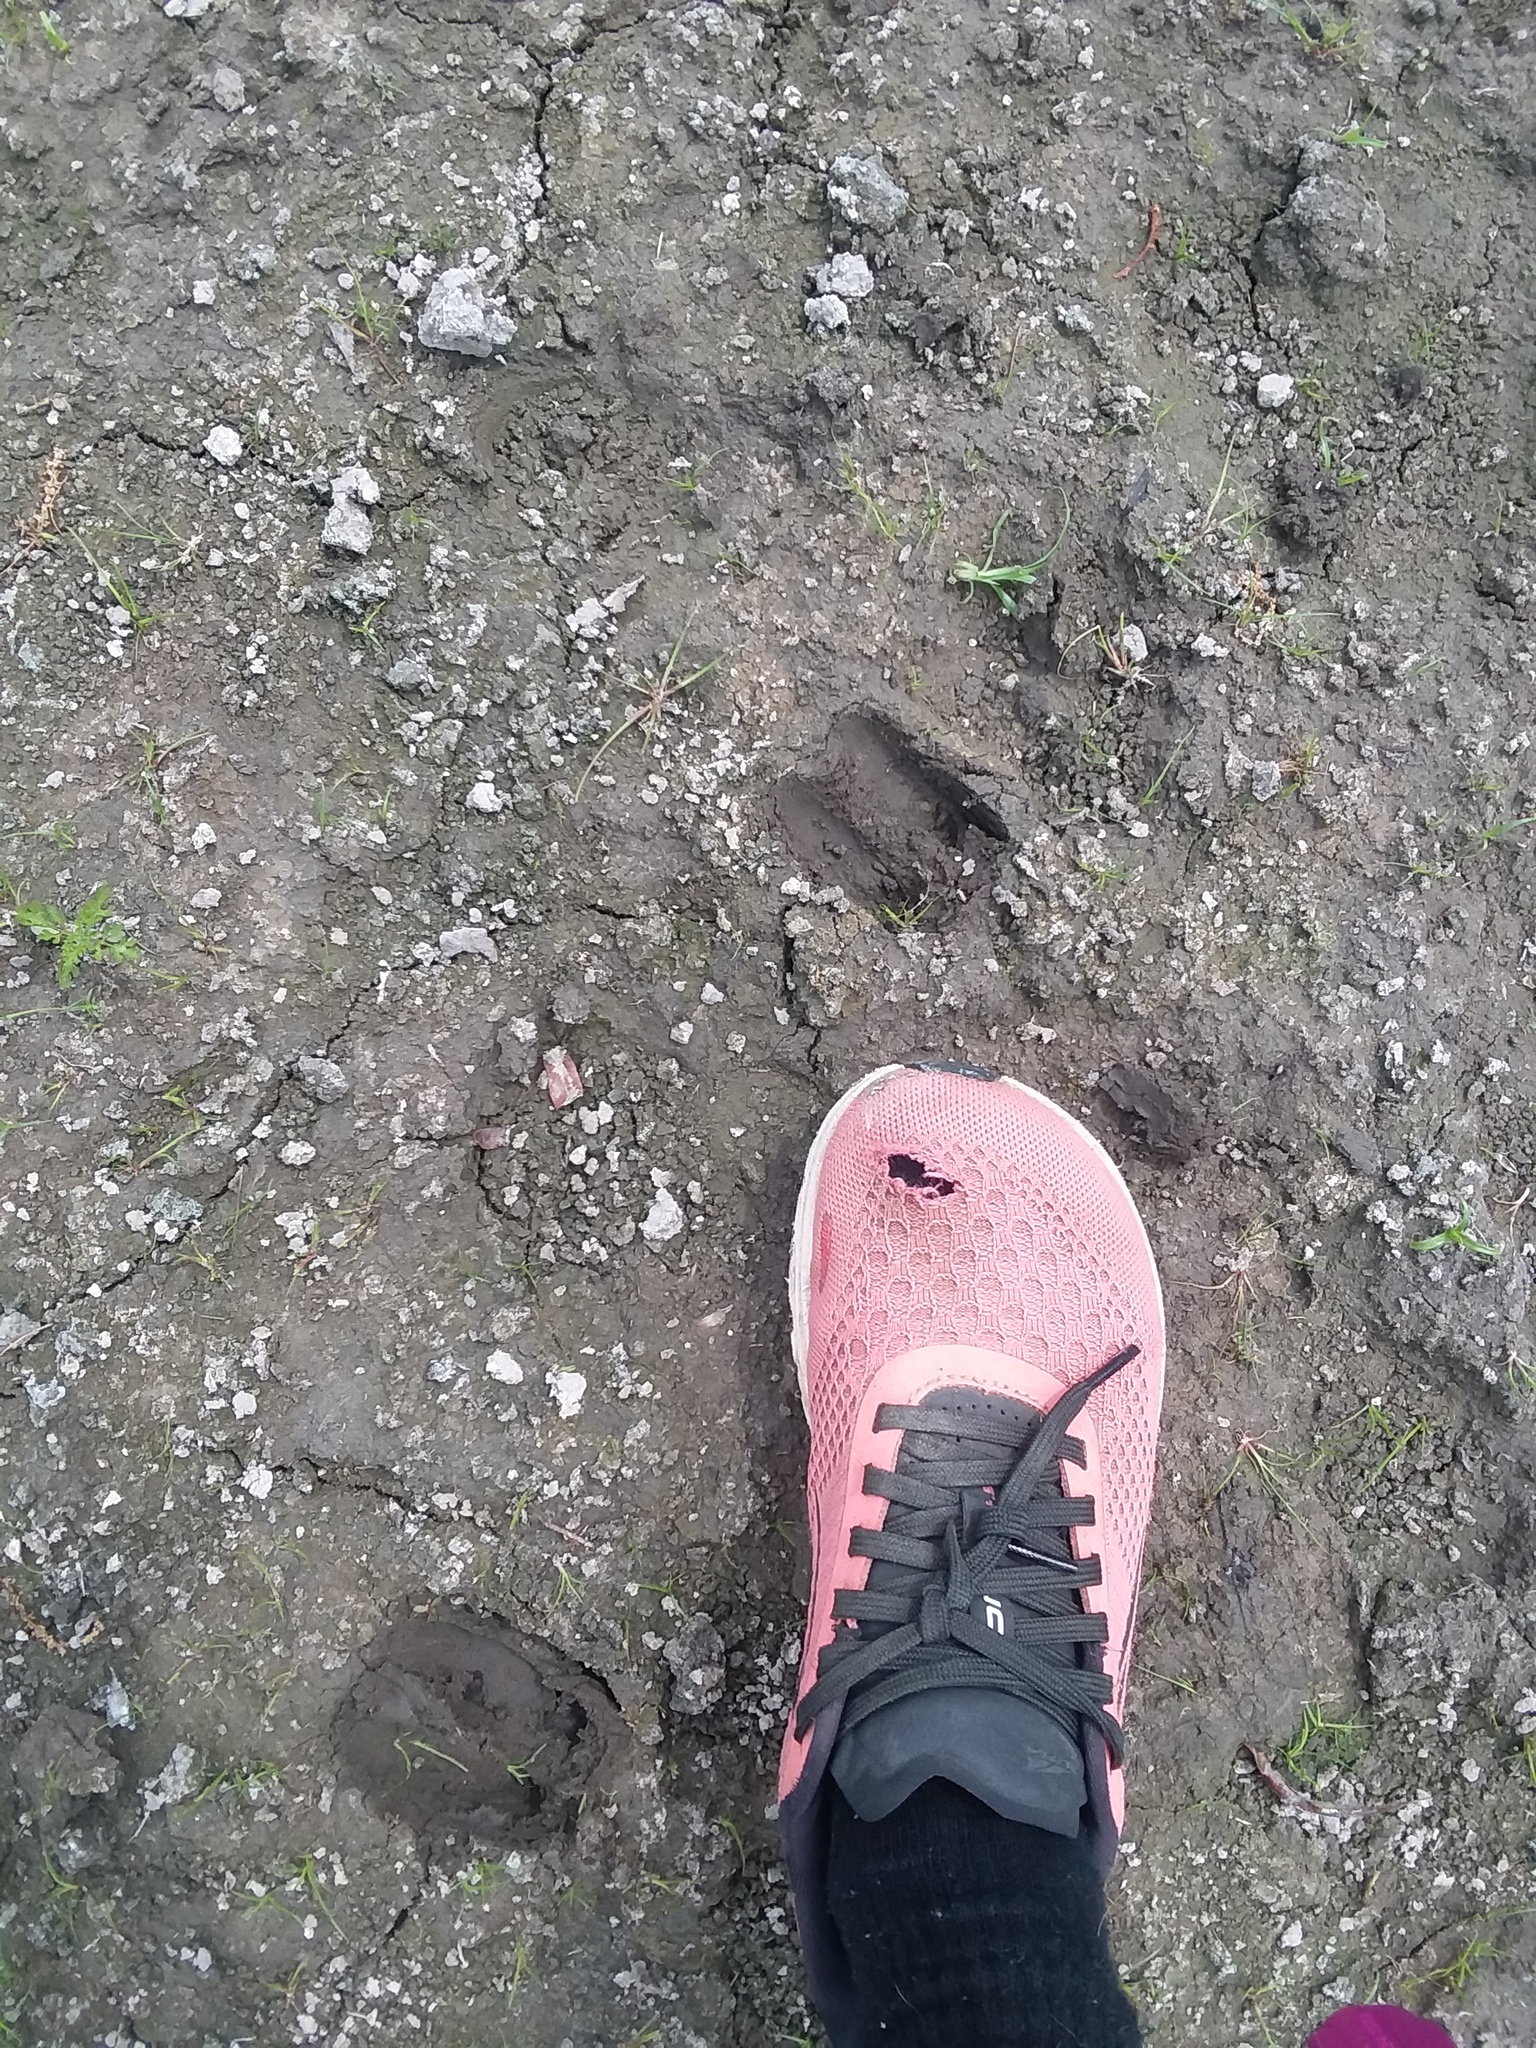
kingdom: Animalia
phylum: Chordata
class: Mammalia
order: Artiodactyla
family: Cervidae
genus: Odocoileus
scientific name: Odocoileus virginianus
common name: White-tailed deer
